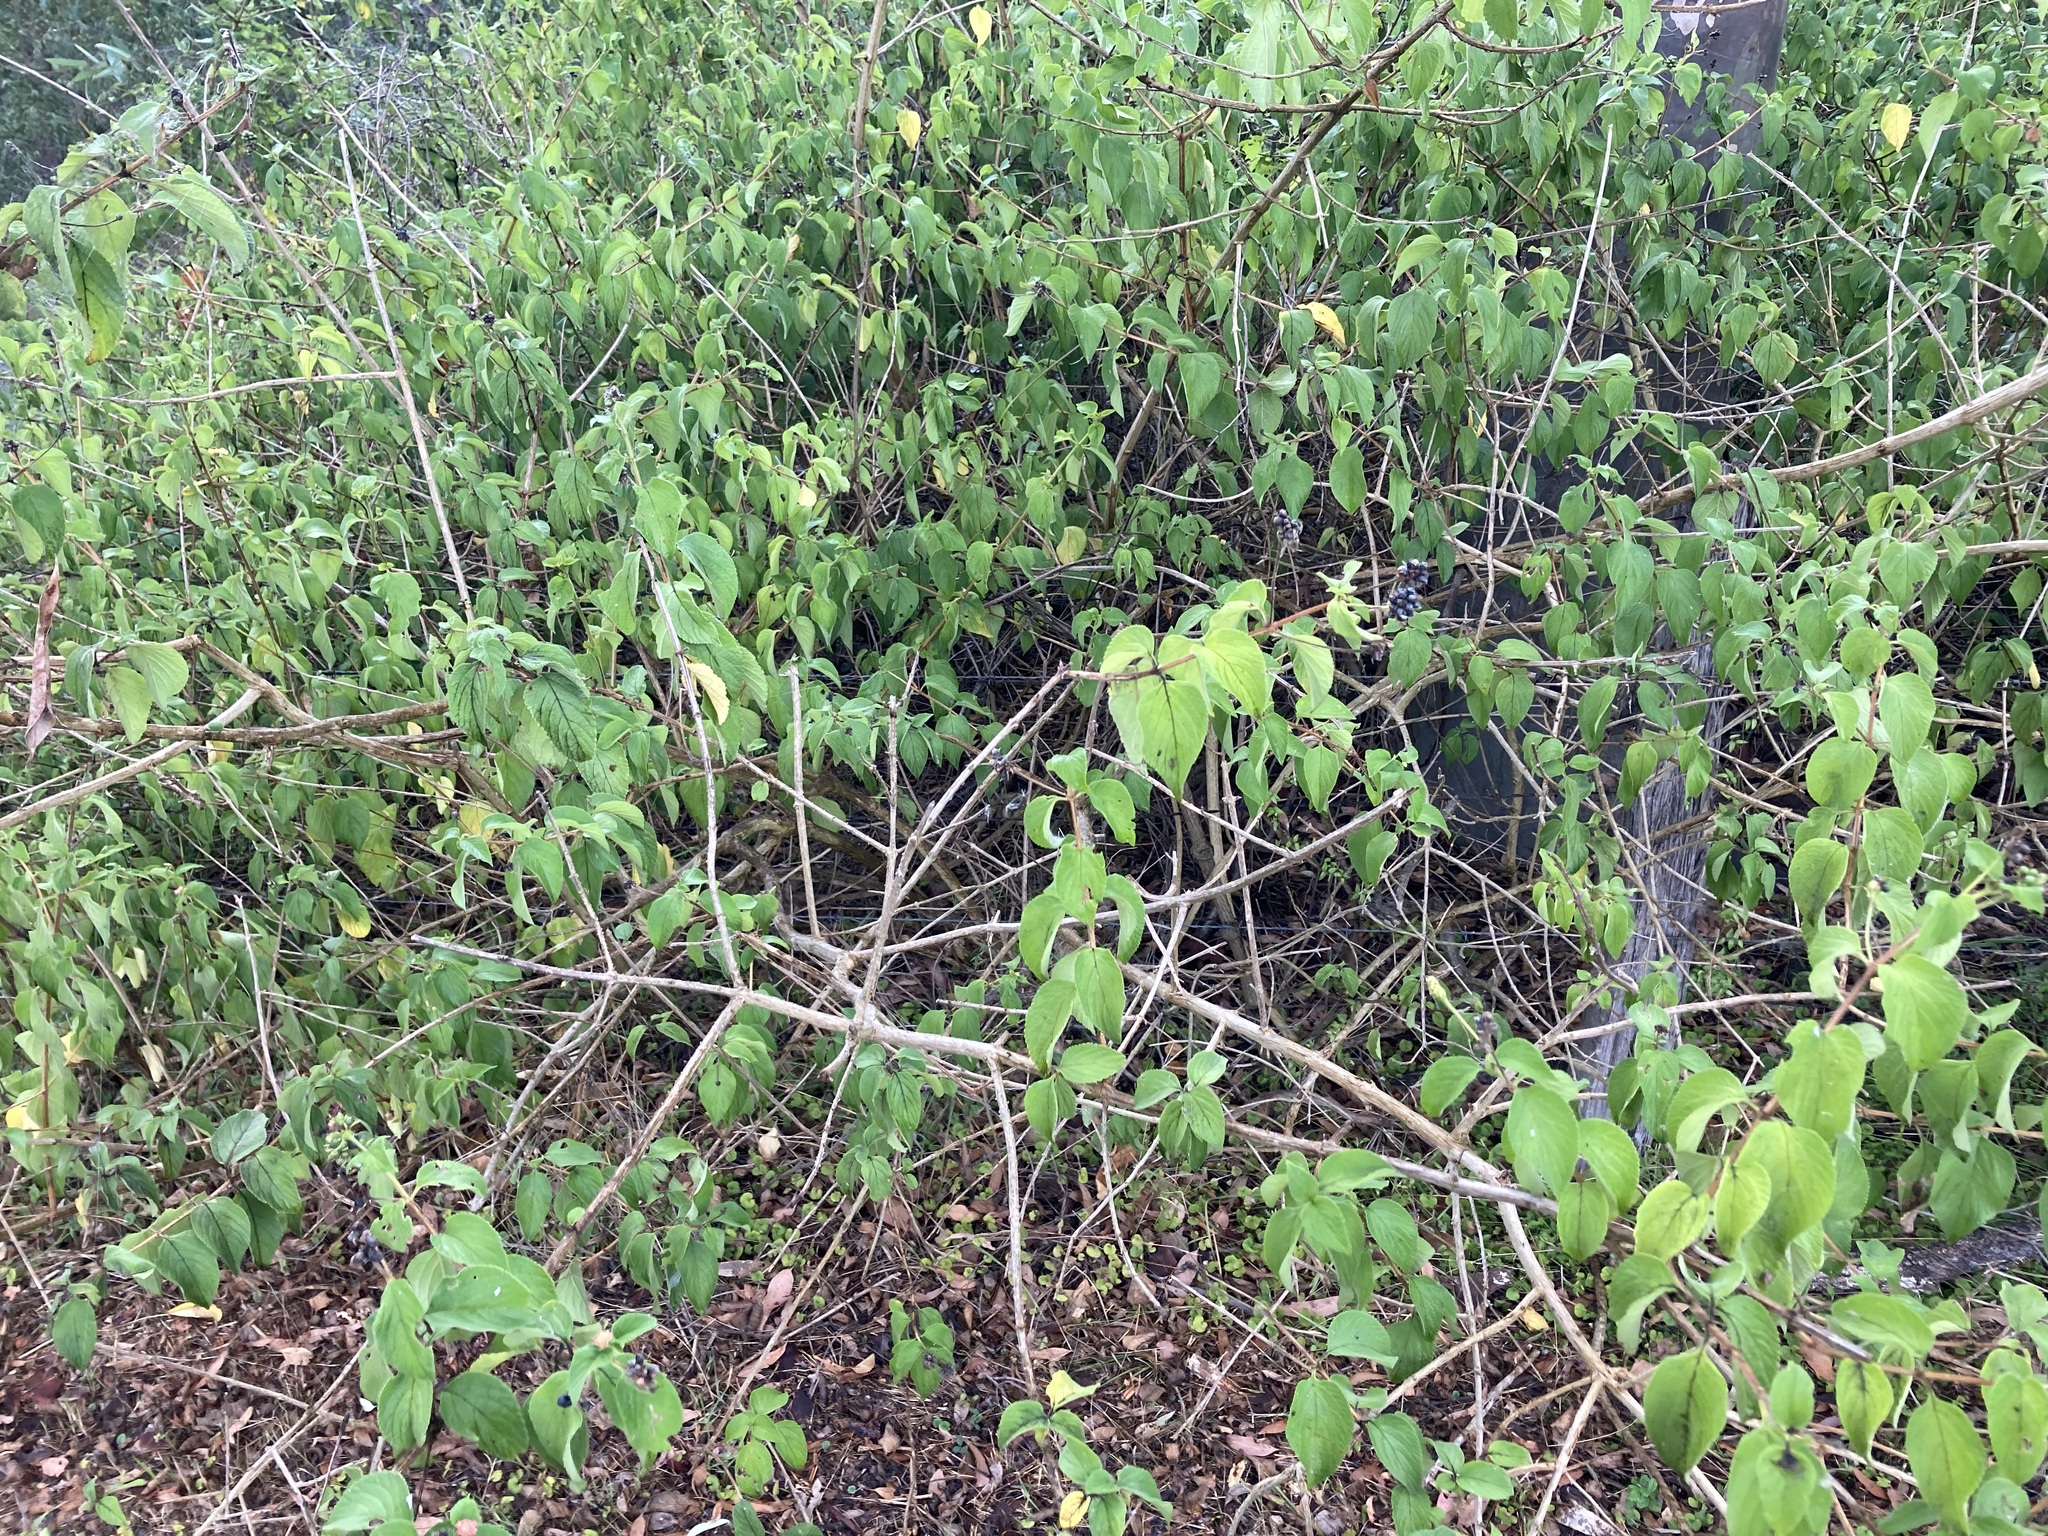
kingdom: Plantae
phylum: Tracheophyta
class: Magnoliopsida
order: Lamiales
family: Verbenaceae
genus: Lantana
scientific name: Lantana camara
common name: Lantana
